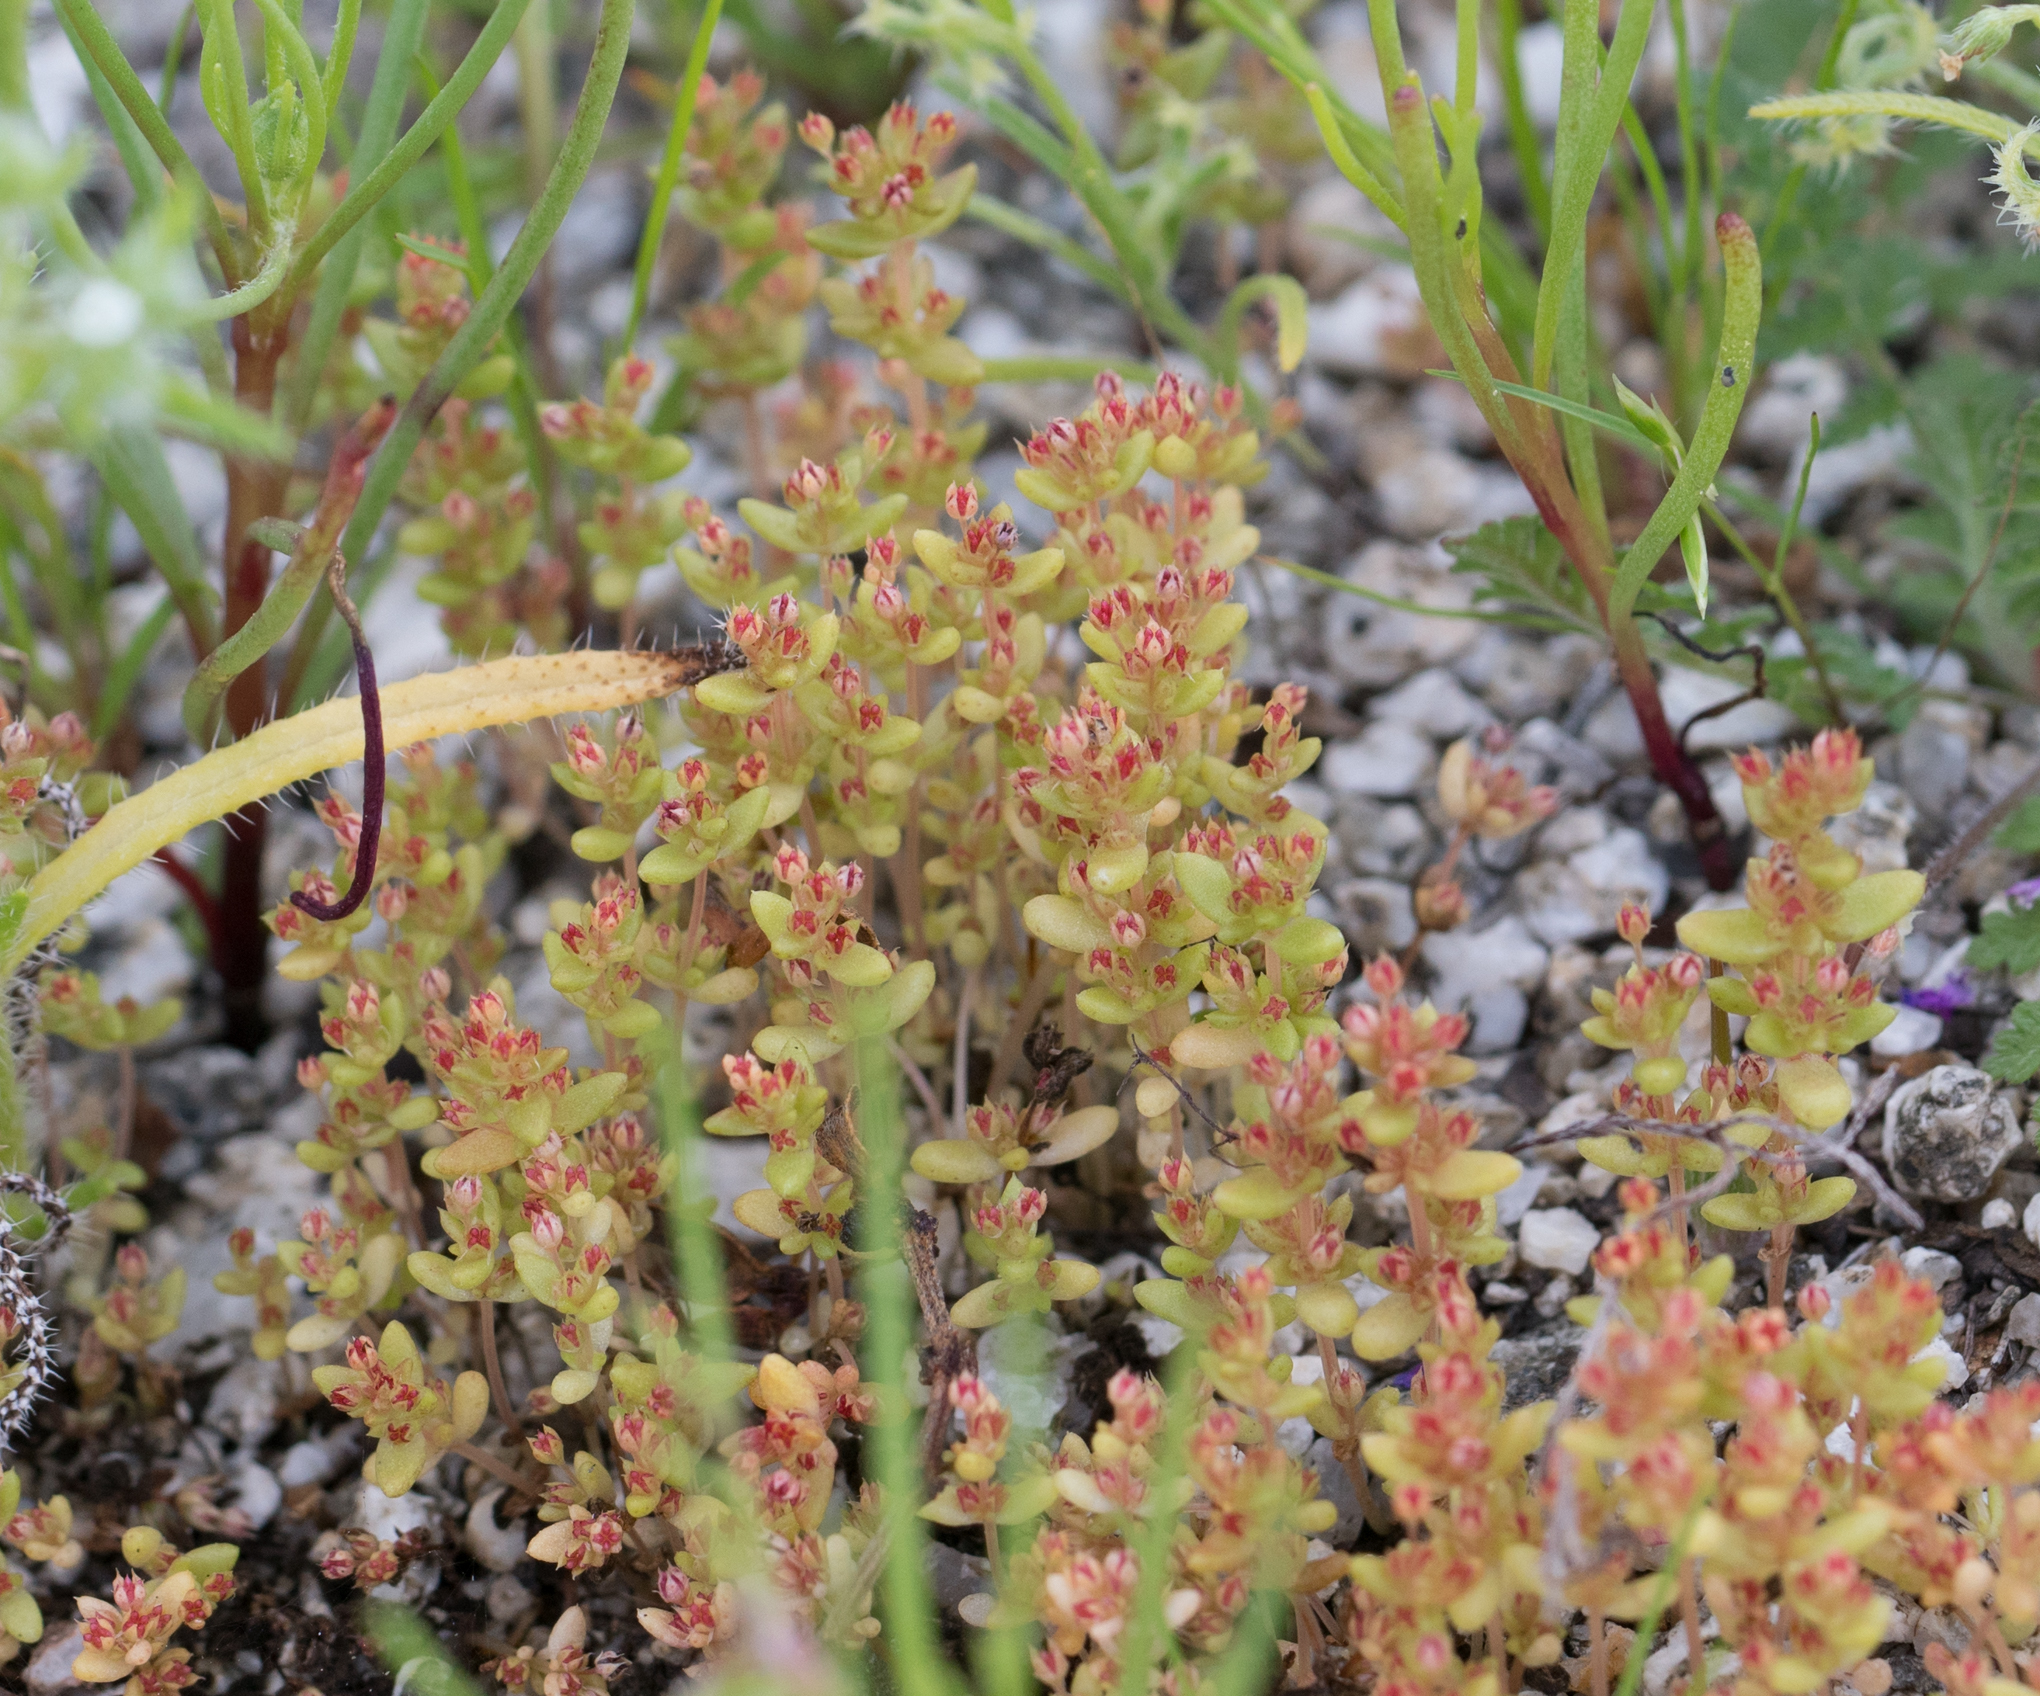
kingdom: Plantae
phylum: Tracheophyta
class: Magnoliopsida
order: Saxifragales
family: Crassulaceae
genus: Crassula
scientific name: Crassula connata
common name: Erect pygmyweed
